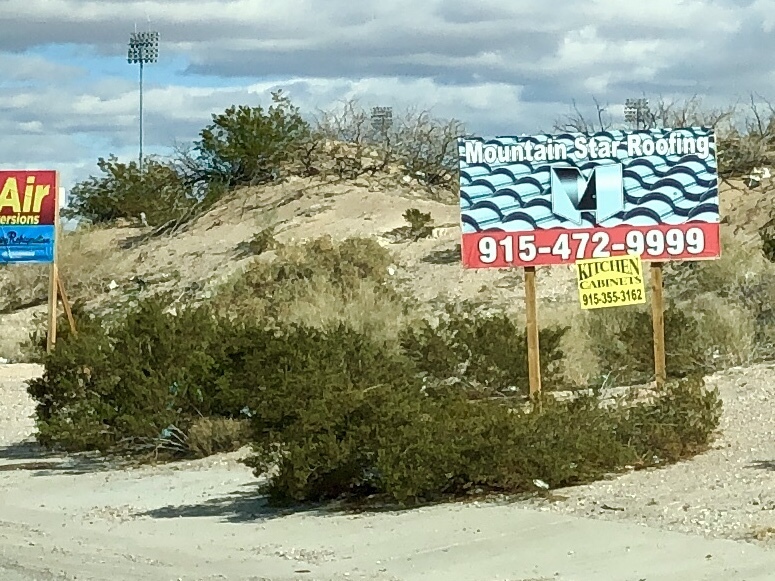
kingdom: Plantae
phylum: Tracheophyta
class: Magnoliopsida
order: Zygophyllales
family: Zygophyllaceae
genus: Larrea
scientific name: Larrea tridentata
